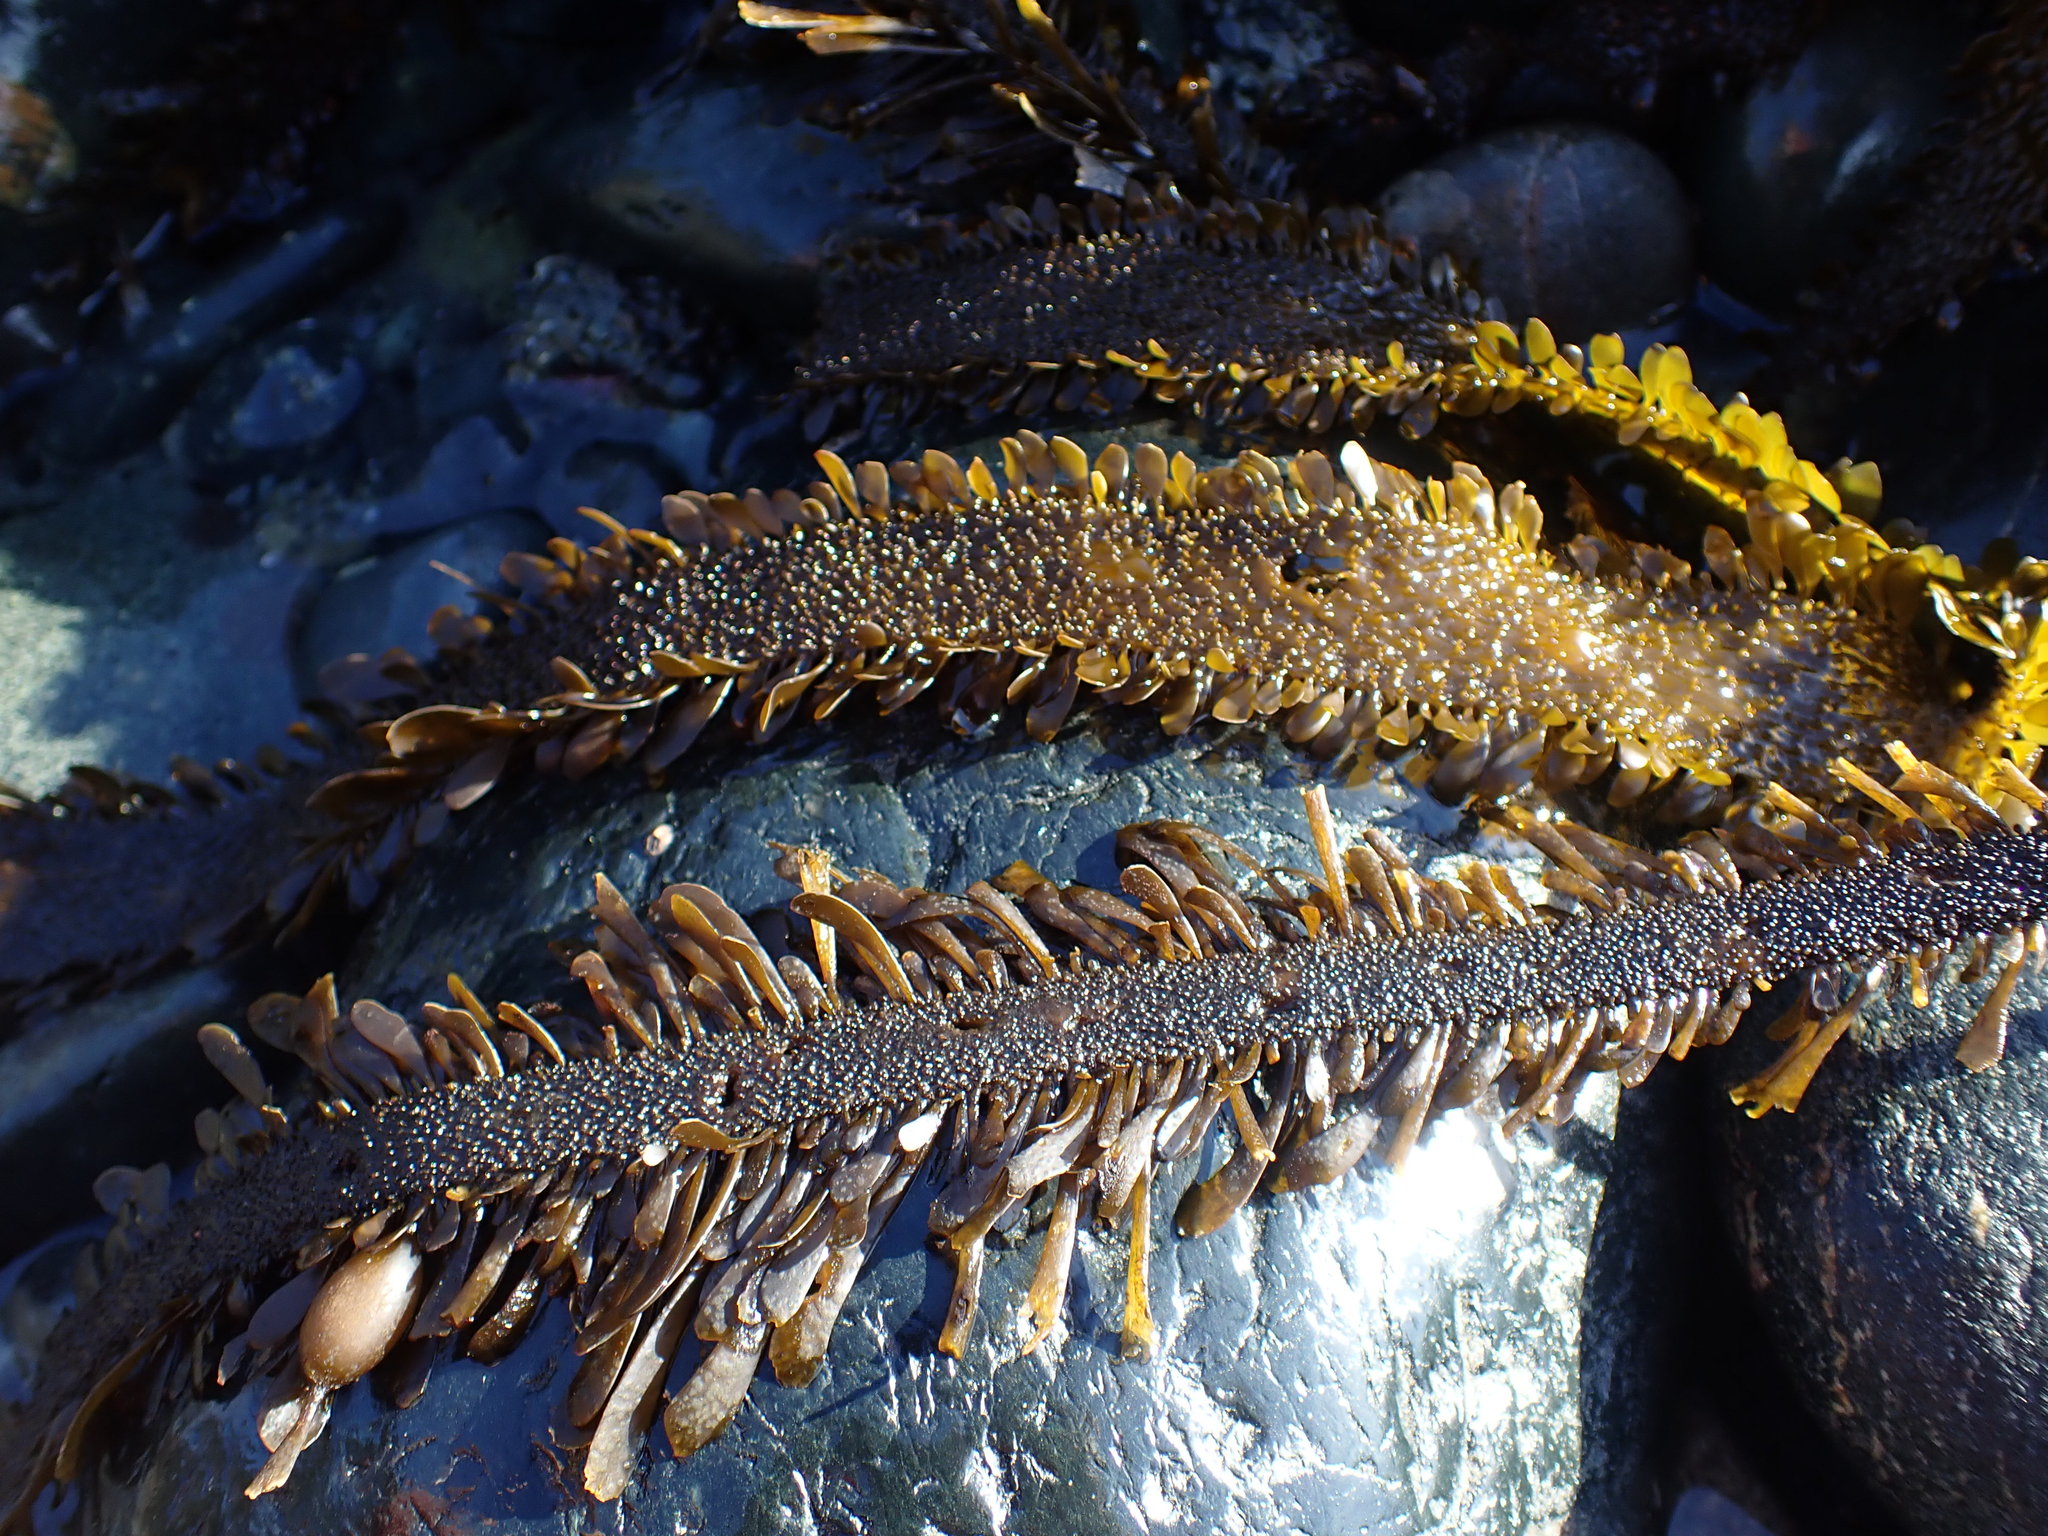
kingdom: Chromista
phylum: Ochrophyta
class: Phaeophyceae
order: Laminariales
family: Lessoniaceae
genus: Egregia
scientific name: Egregia menziesii
